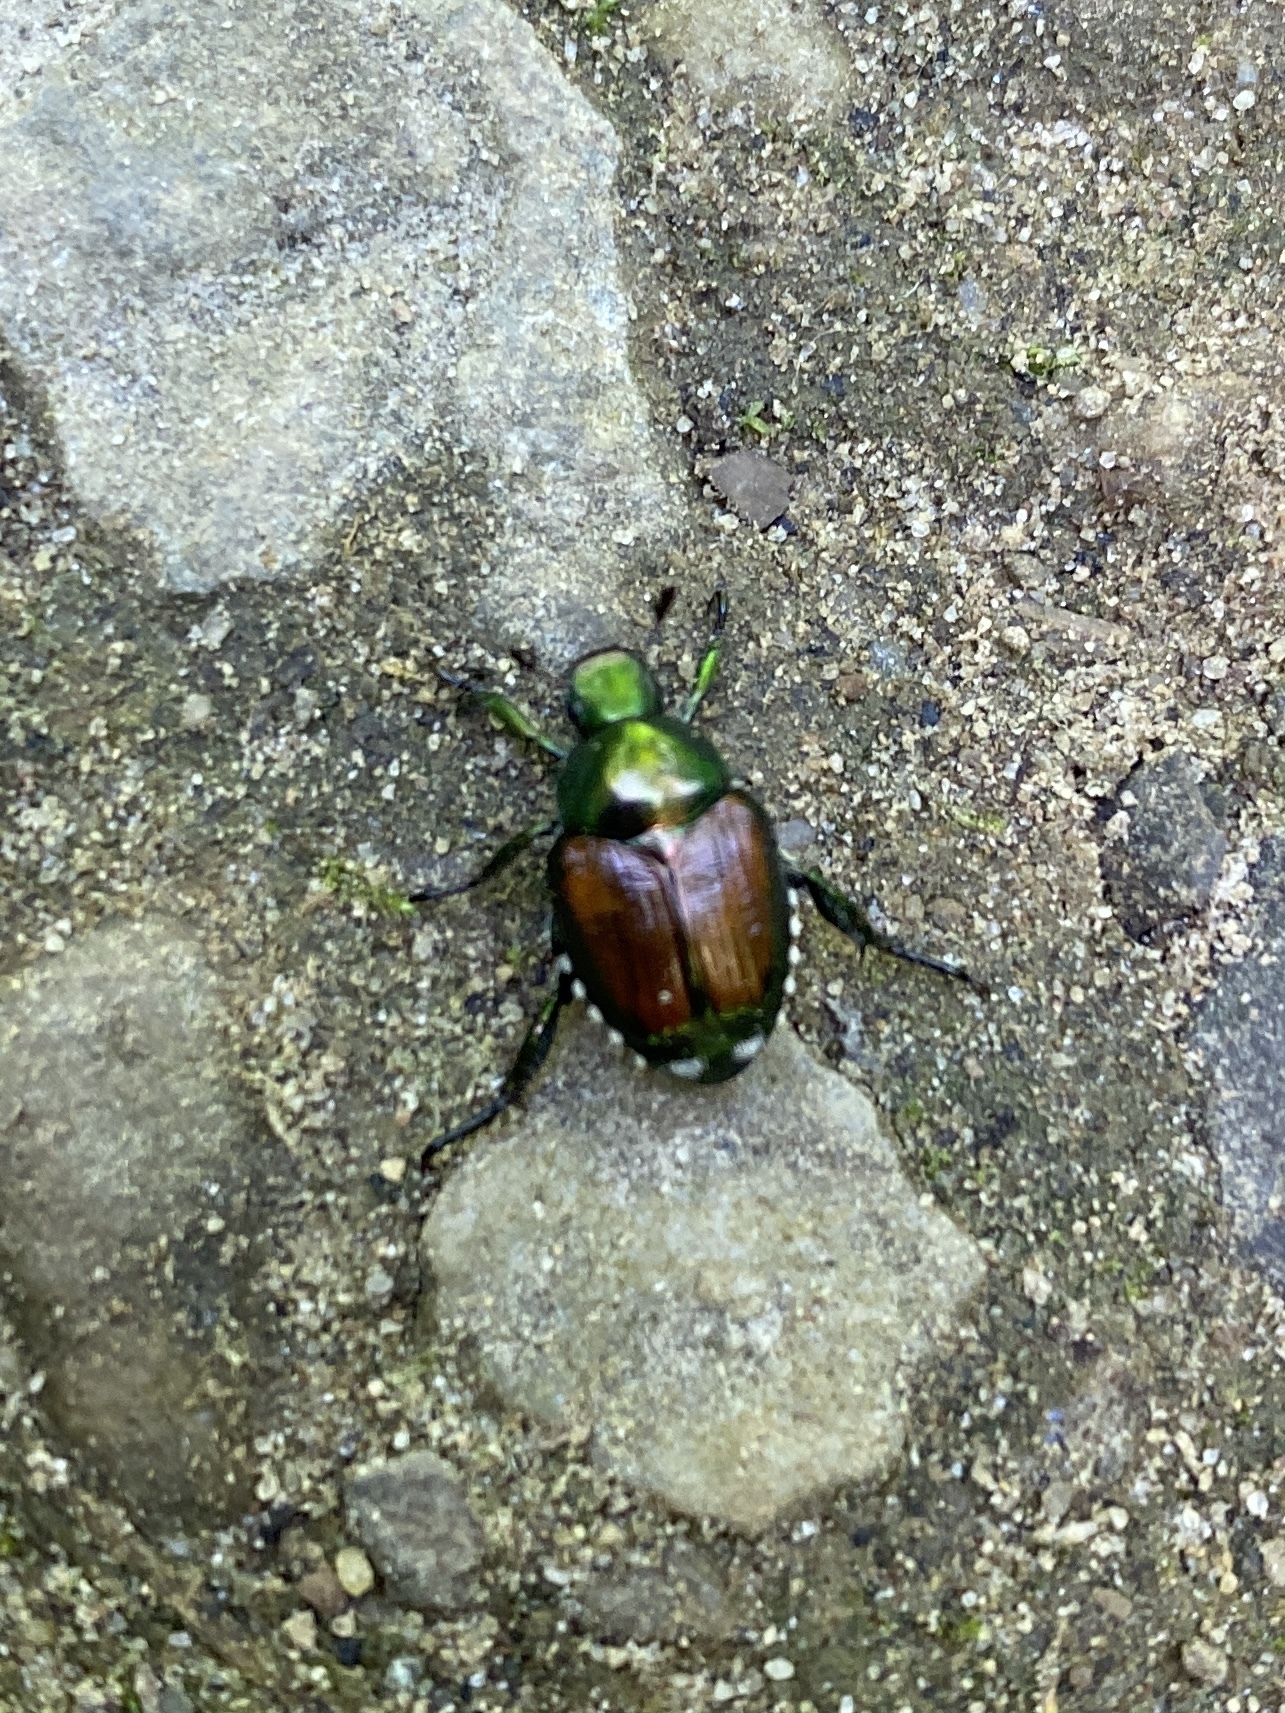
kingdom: Animalia
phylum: Arthropoda
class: Insecta
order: Coleoptera
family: Scarabaeidae
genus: Popillia
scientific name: Popillia japonica
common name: Japanese beetle
